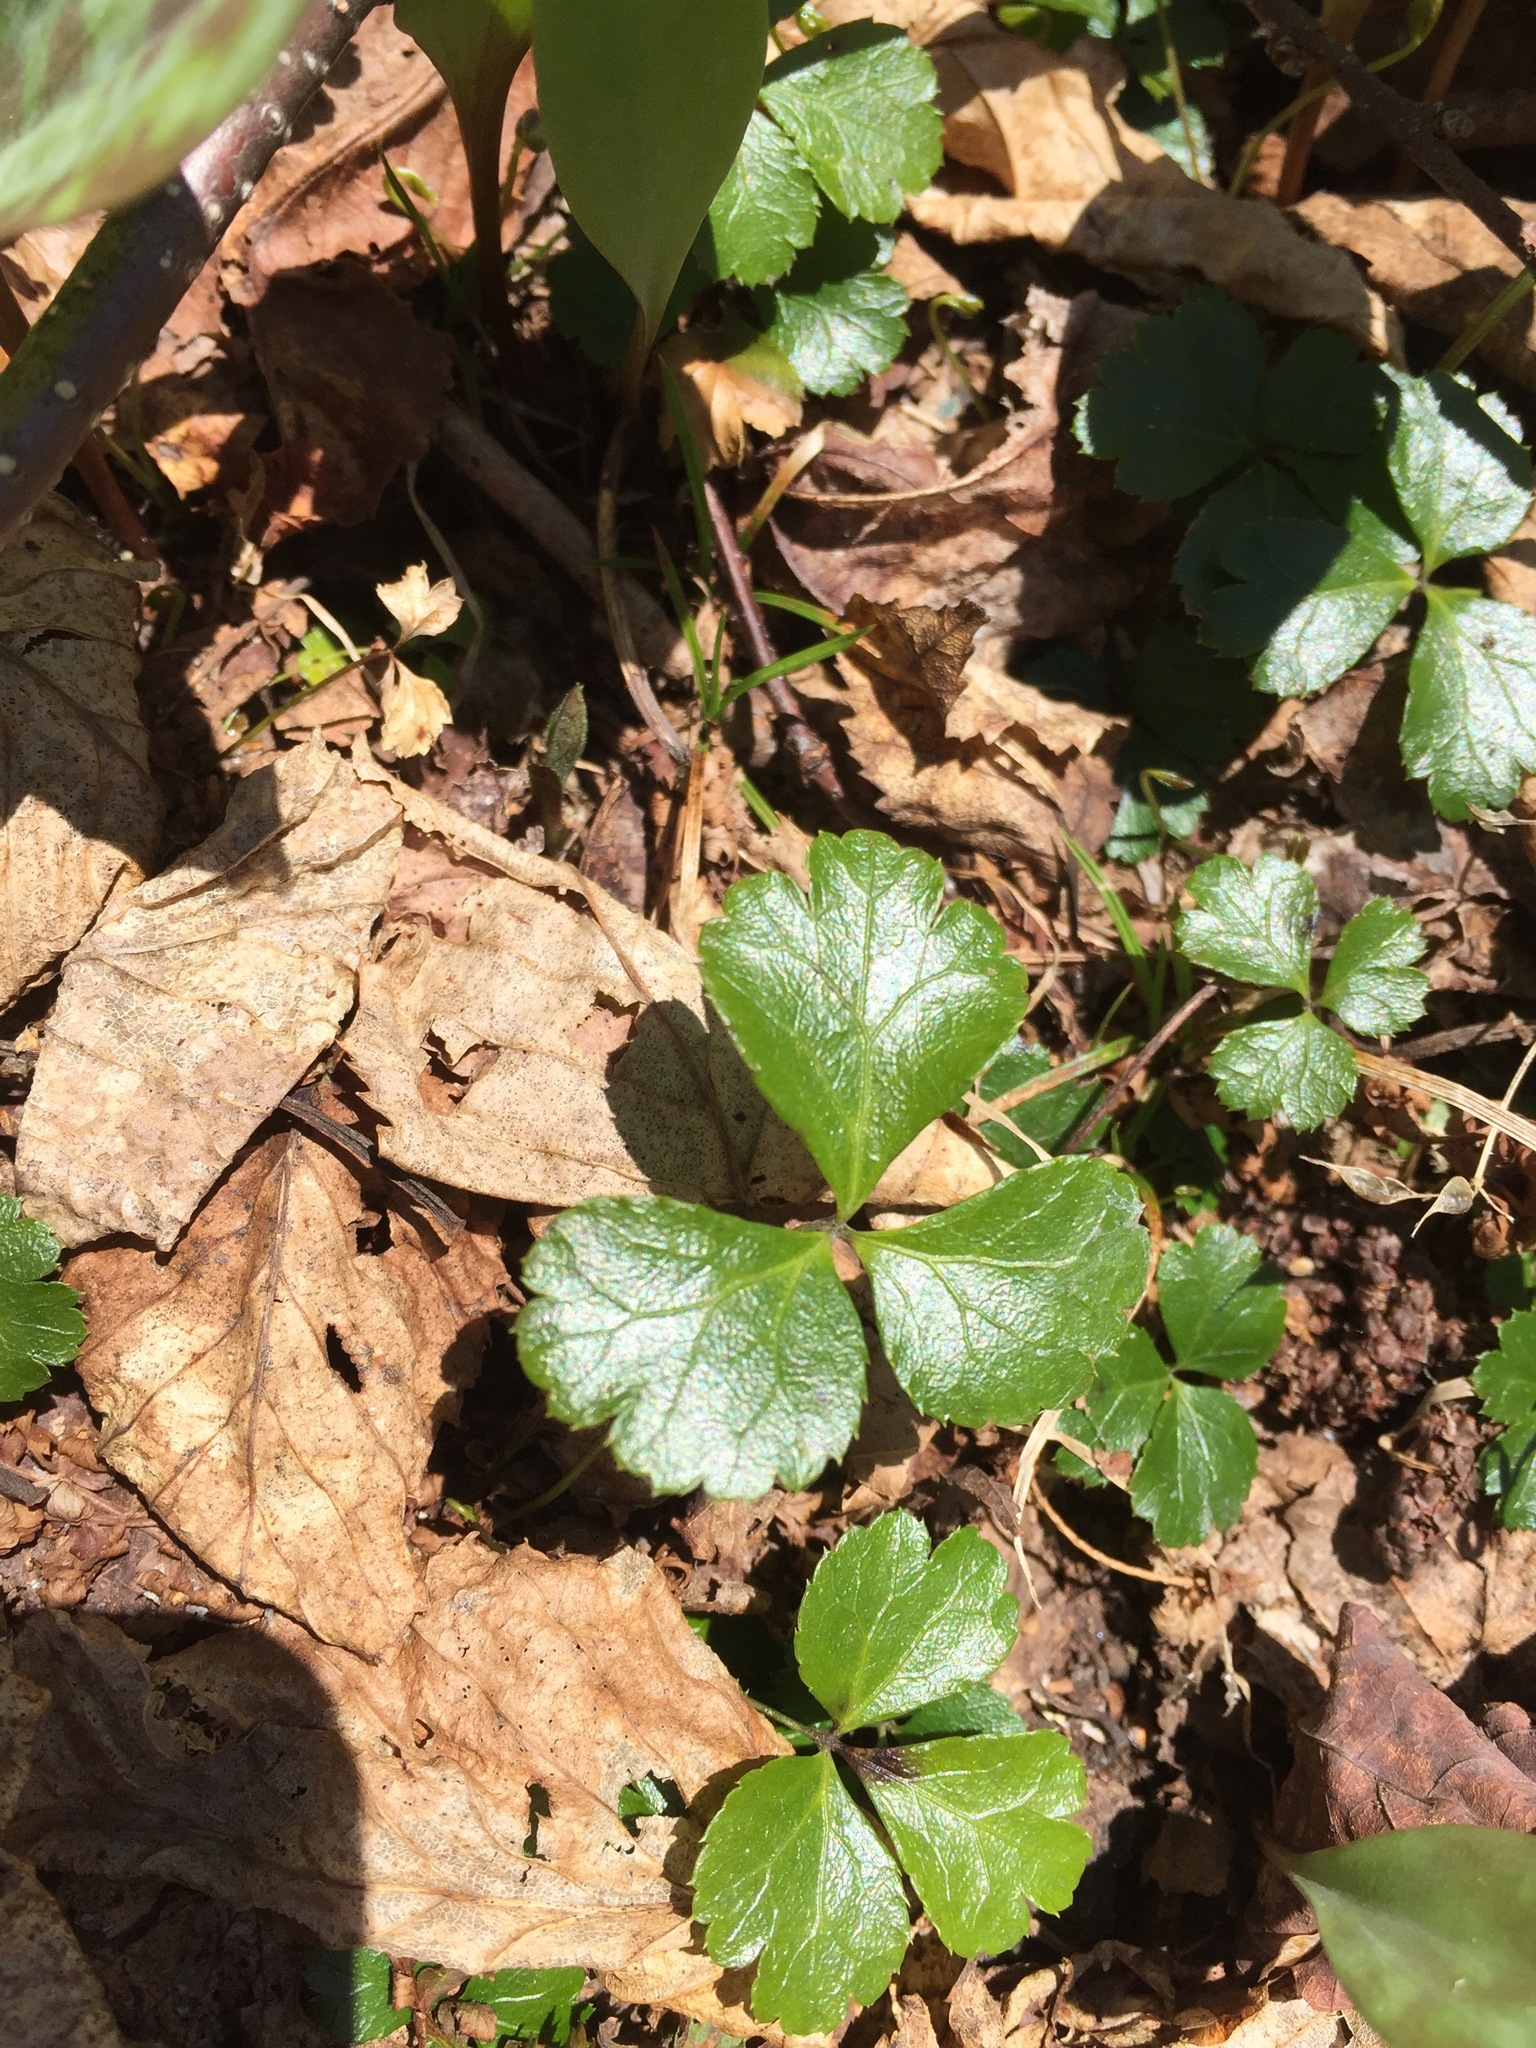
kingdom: Plantae
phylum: Tracheophyta
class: Magnoliopsida
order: Ranunculales
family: Ranunculaceae
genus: Coptis
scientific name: Coptis trifolia
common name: Canker-root
